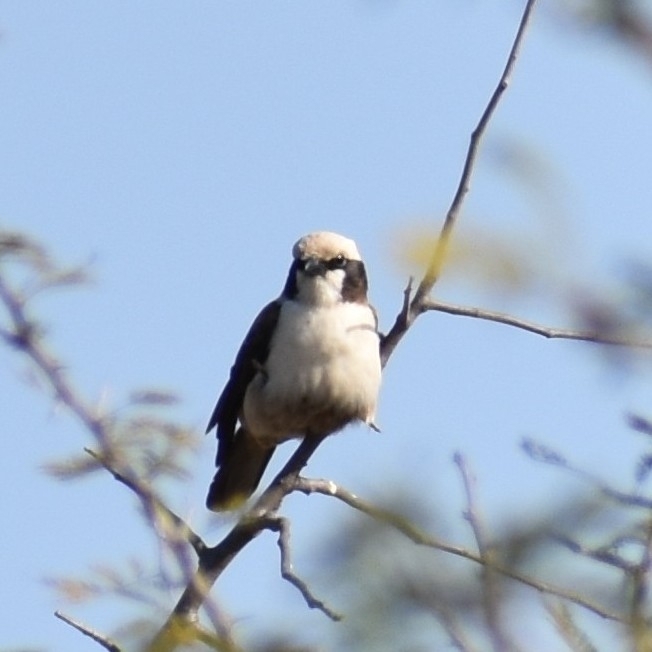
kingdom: Animalia
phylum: Chordata
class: Aves
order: Passeriformes
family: Laniidae
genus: Eurocephalus
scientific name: Eurocephalus anguitimens
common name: Southern white-crowned shrike
